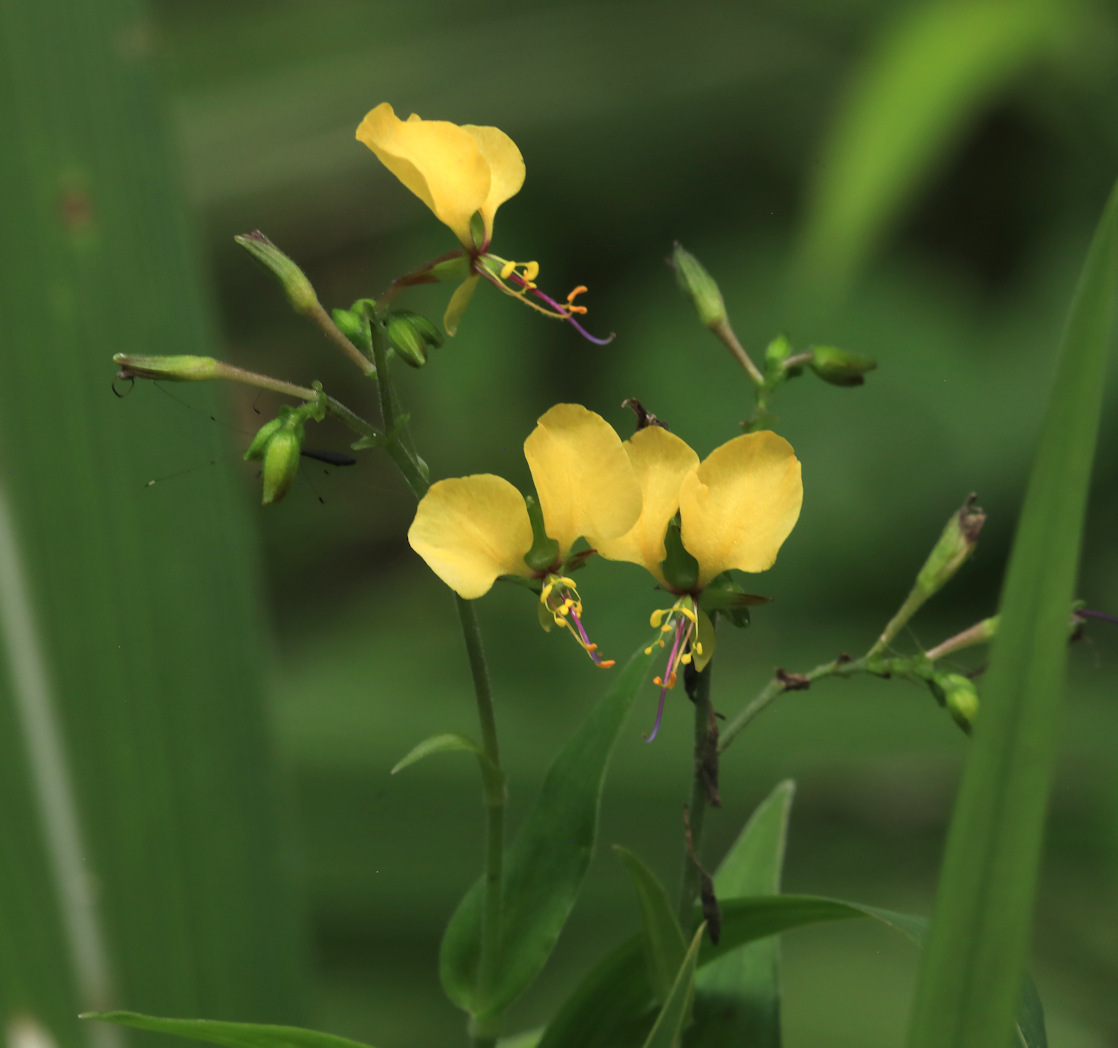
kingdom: Plantae
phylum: Tracheophyta
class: Liliopsida
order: Commelinales
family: Commelinaceae
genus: Aneilema
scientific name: Aneilema aequinoctiale
